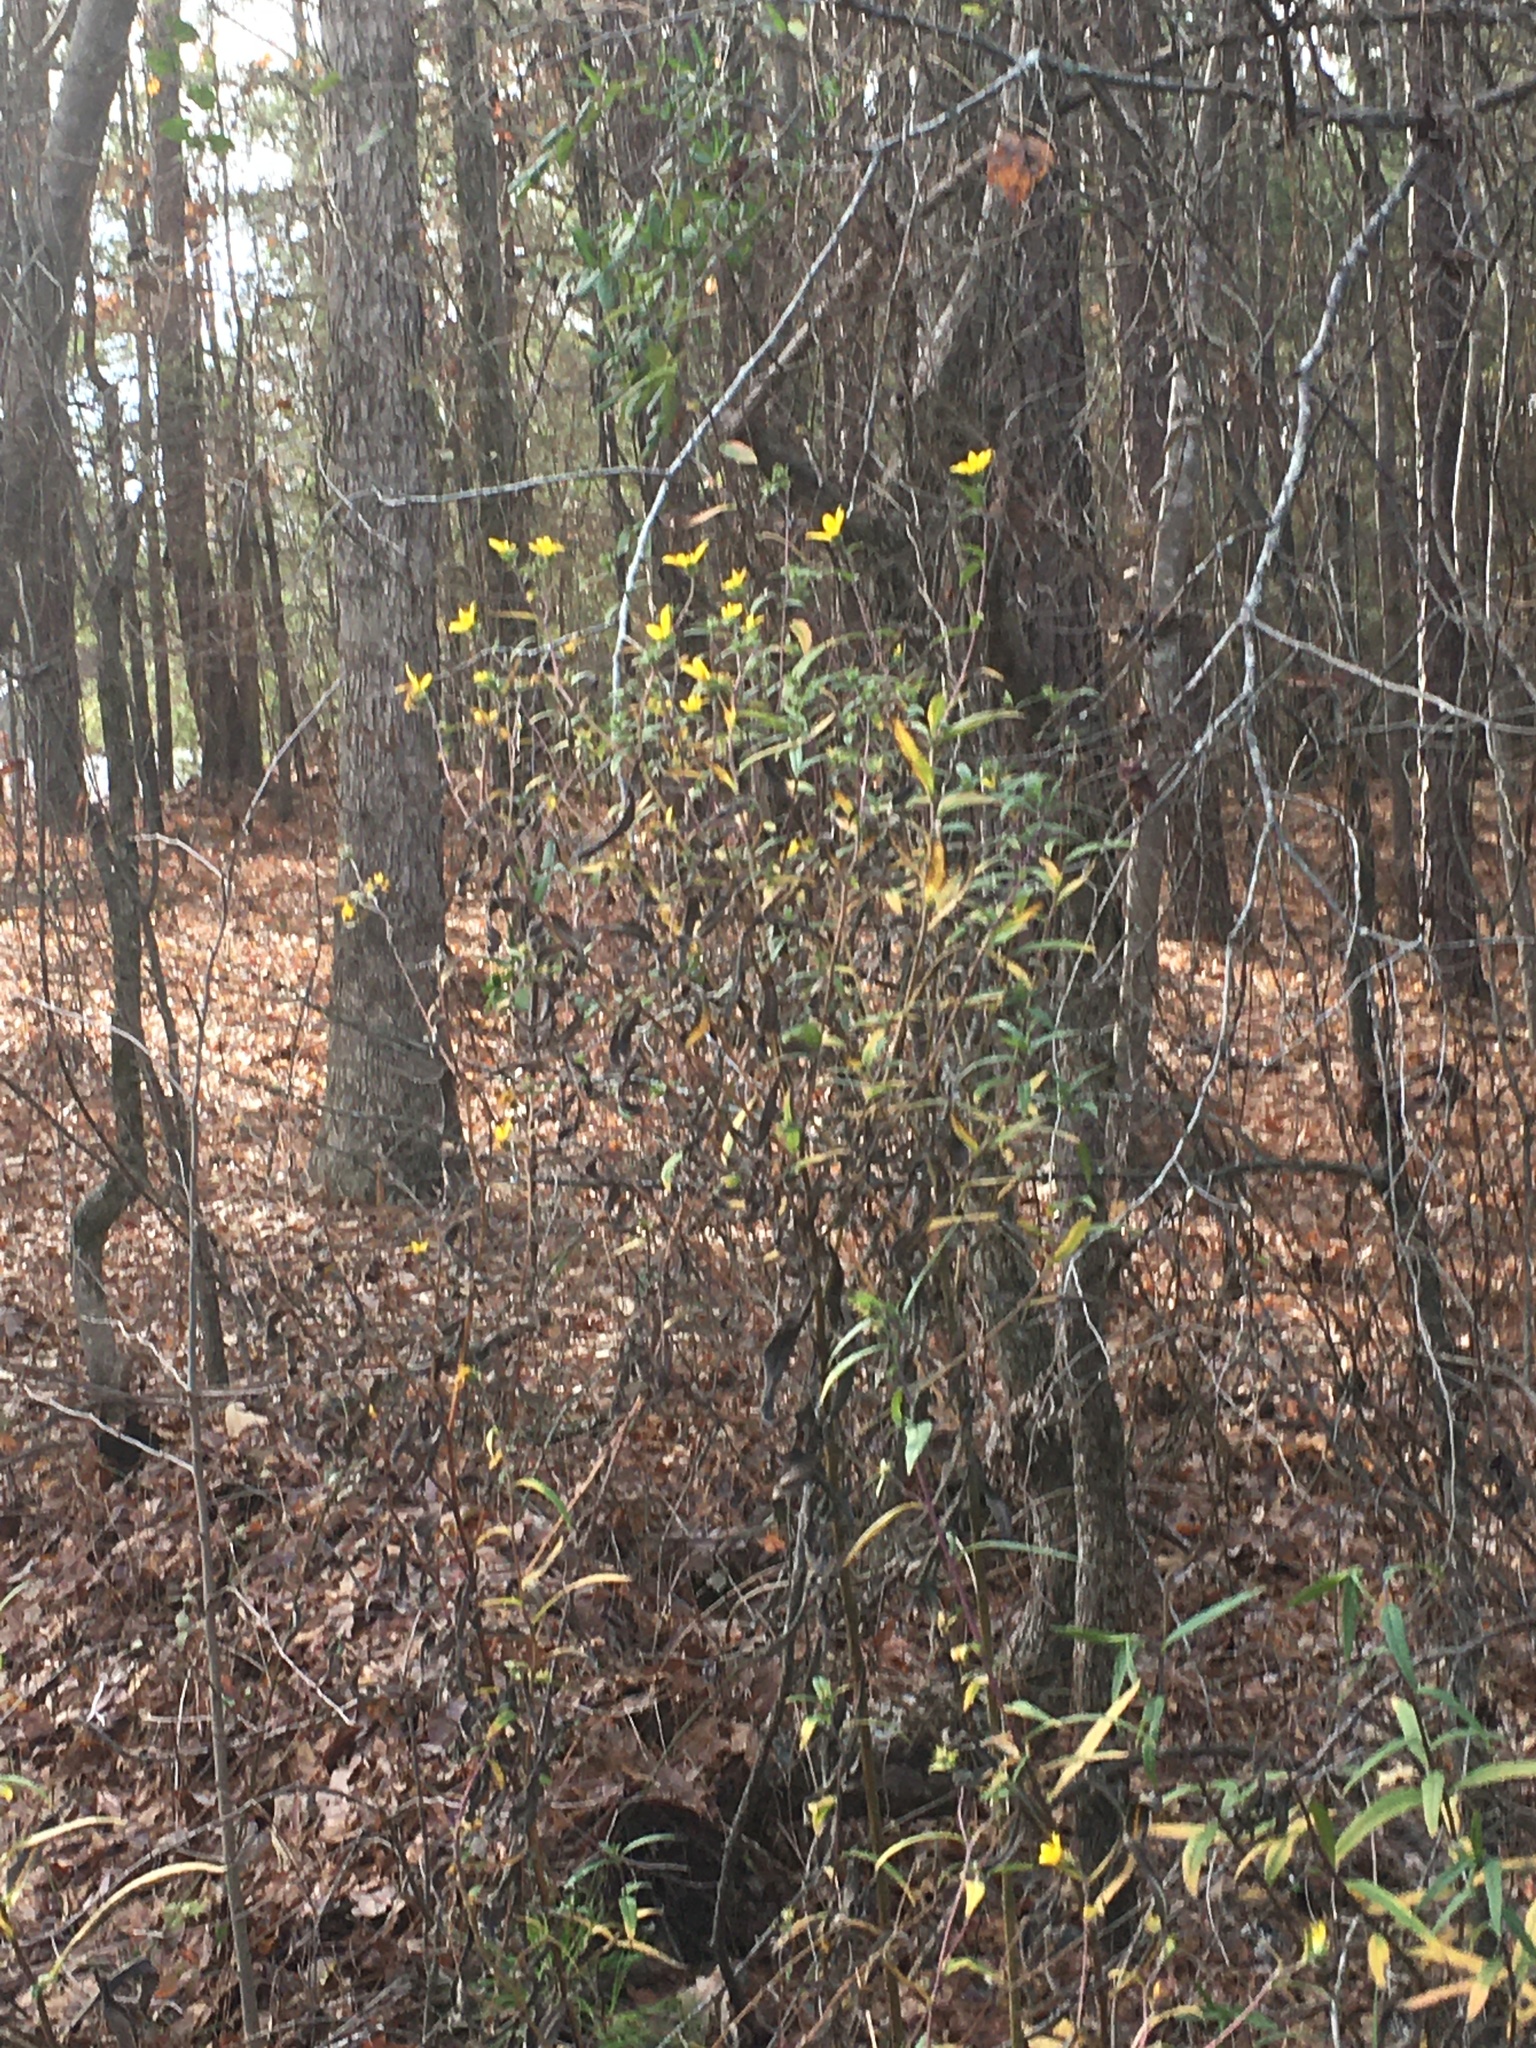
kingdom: Plantae
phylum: Tracheophyta
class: Magnoliopsida
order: Asterales
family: Asteraceae
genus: Helianthus
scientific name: Helianthus schweinitzii
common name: Schweinitz's sunflower
